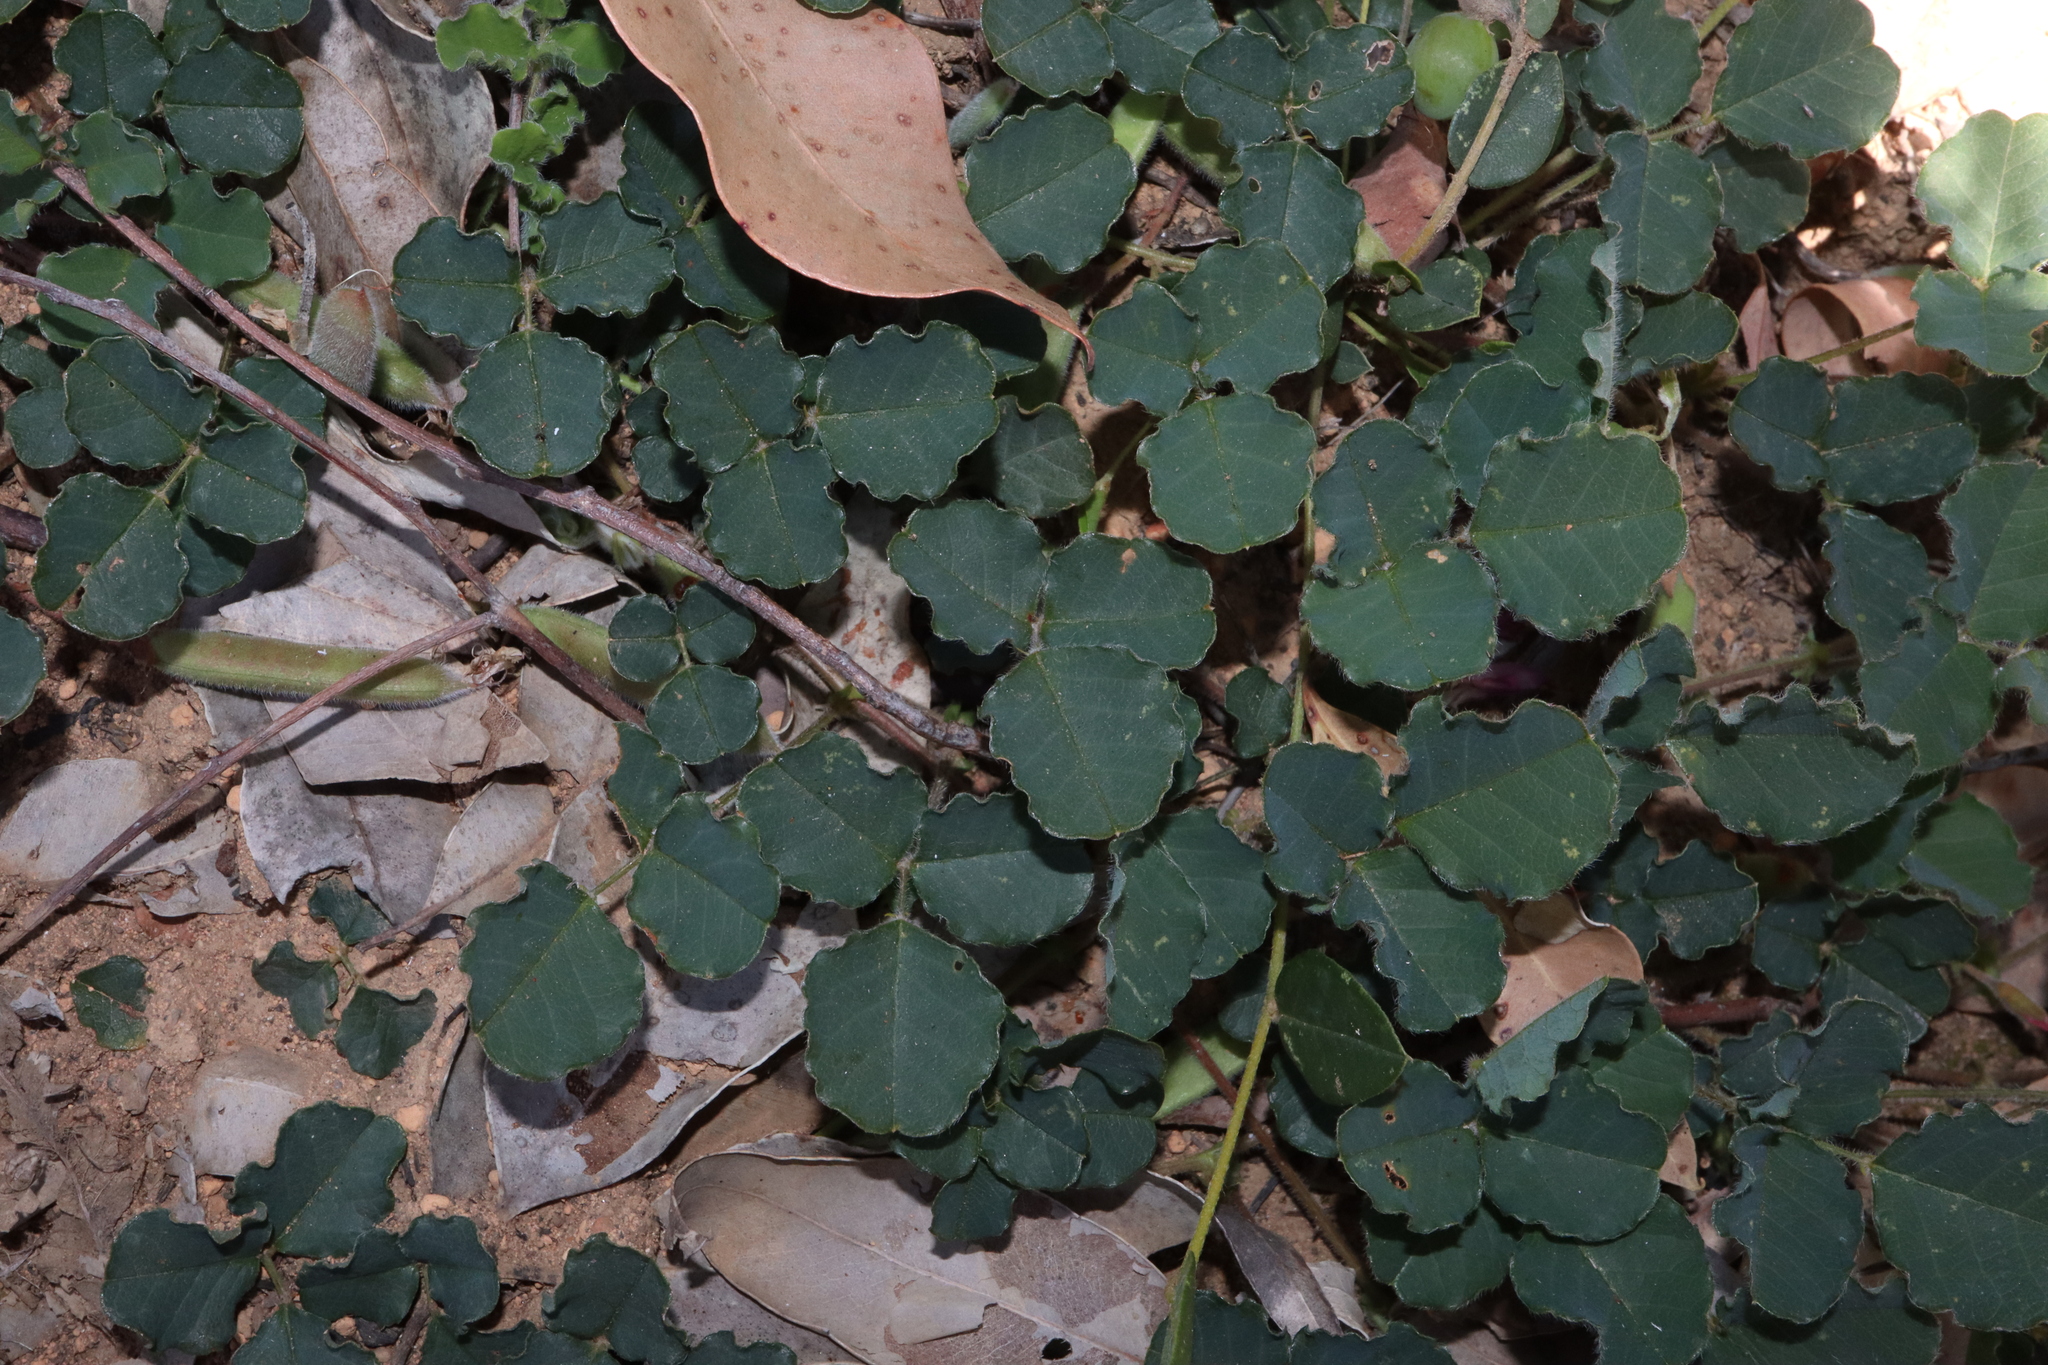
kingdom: Plantae
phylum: Tracheophyta
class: Magnoliopsida
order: Fabales
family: Fabaceae
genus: Kennedia
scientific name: Kennedia prostrata
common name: Running-postman
